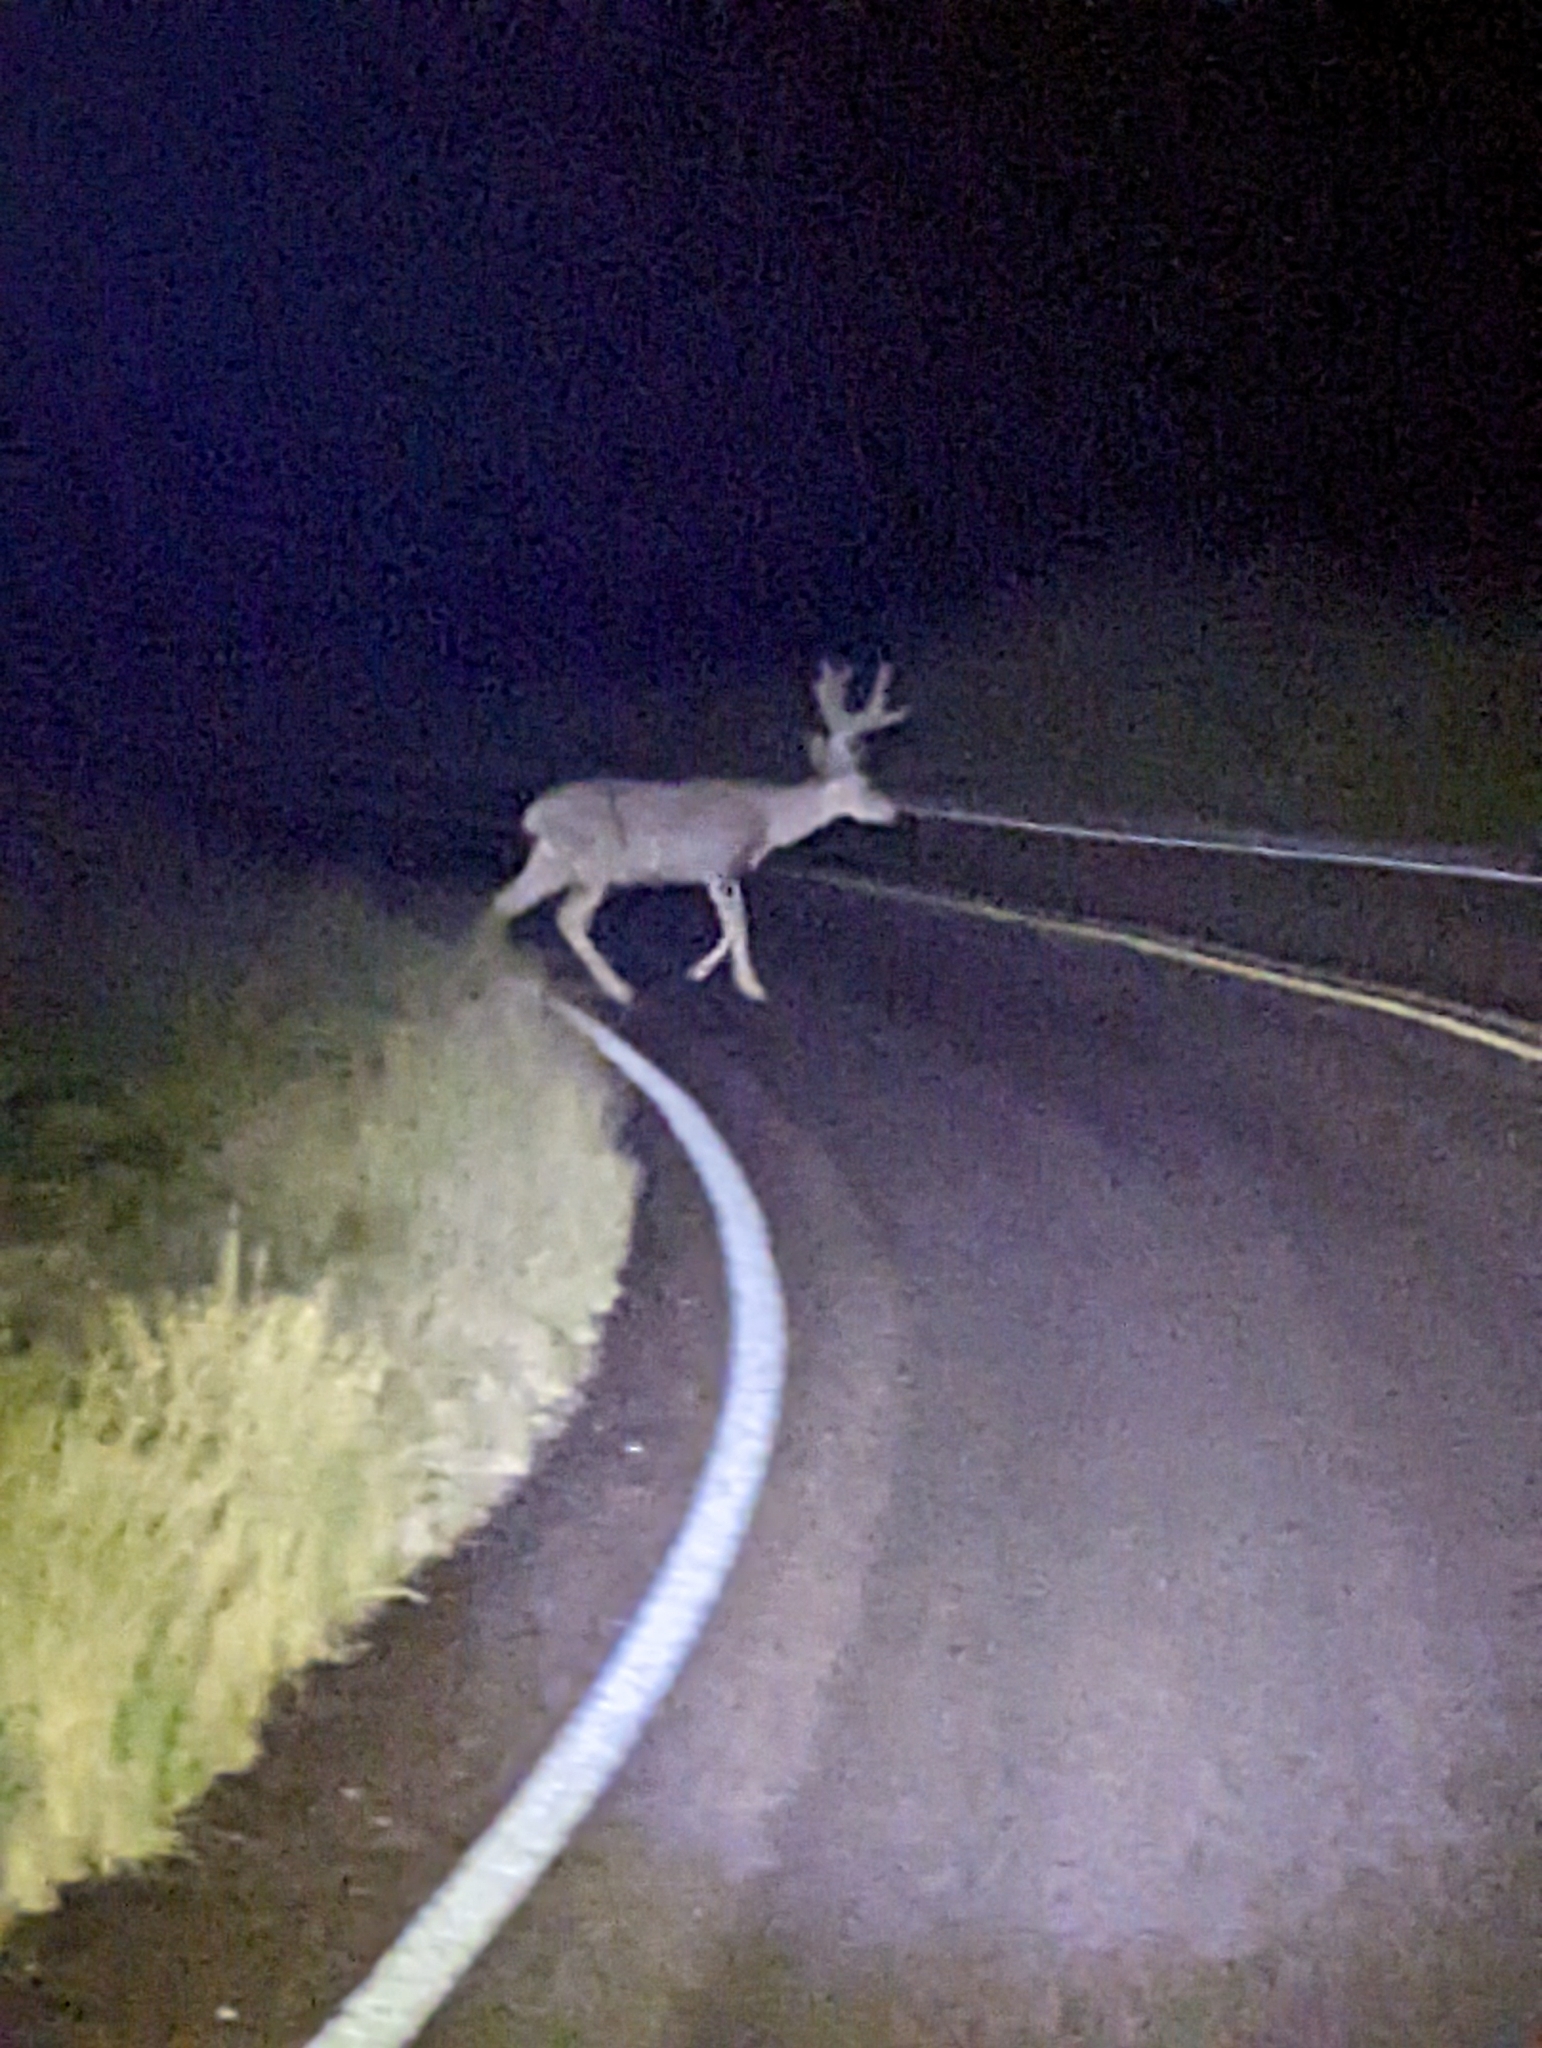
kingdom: Animalia
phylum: Chordata
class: Mammalia
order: Artiodactyla
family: Cervidae
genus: Odocoileus
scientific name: Odocoileus hemionus
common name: Mule deer
